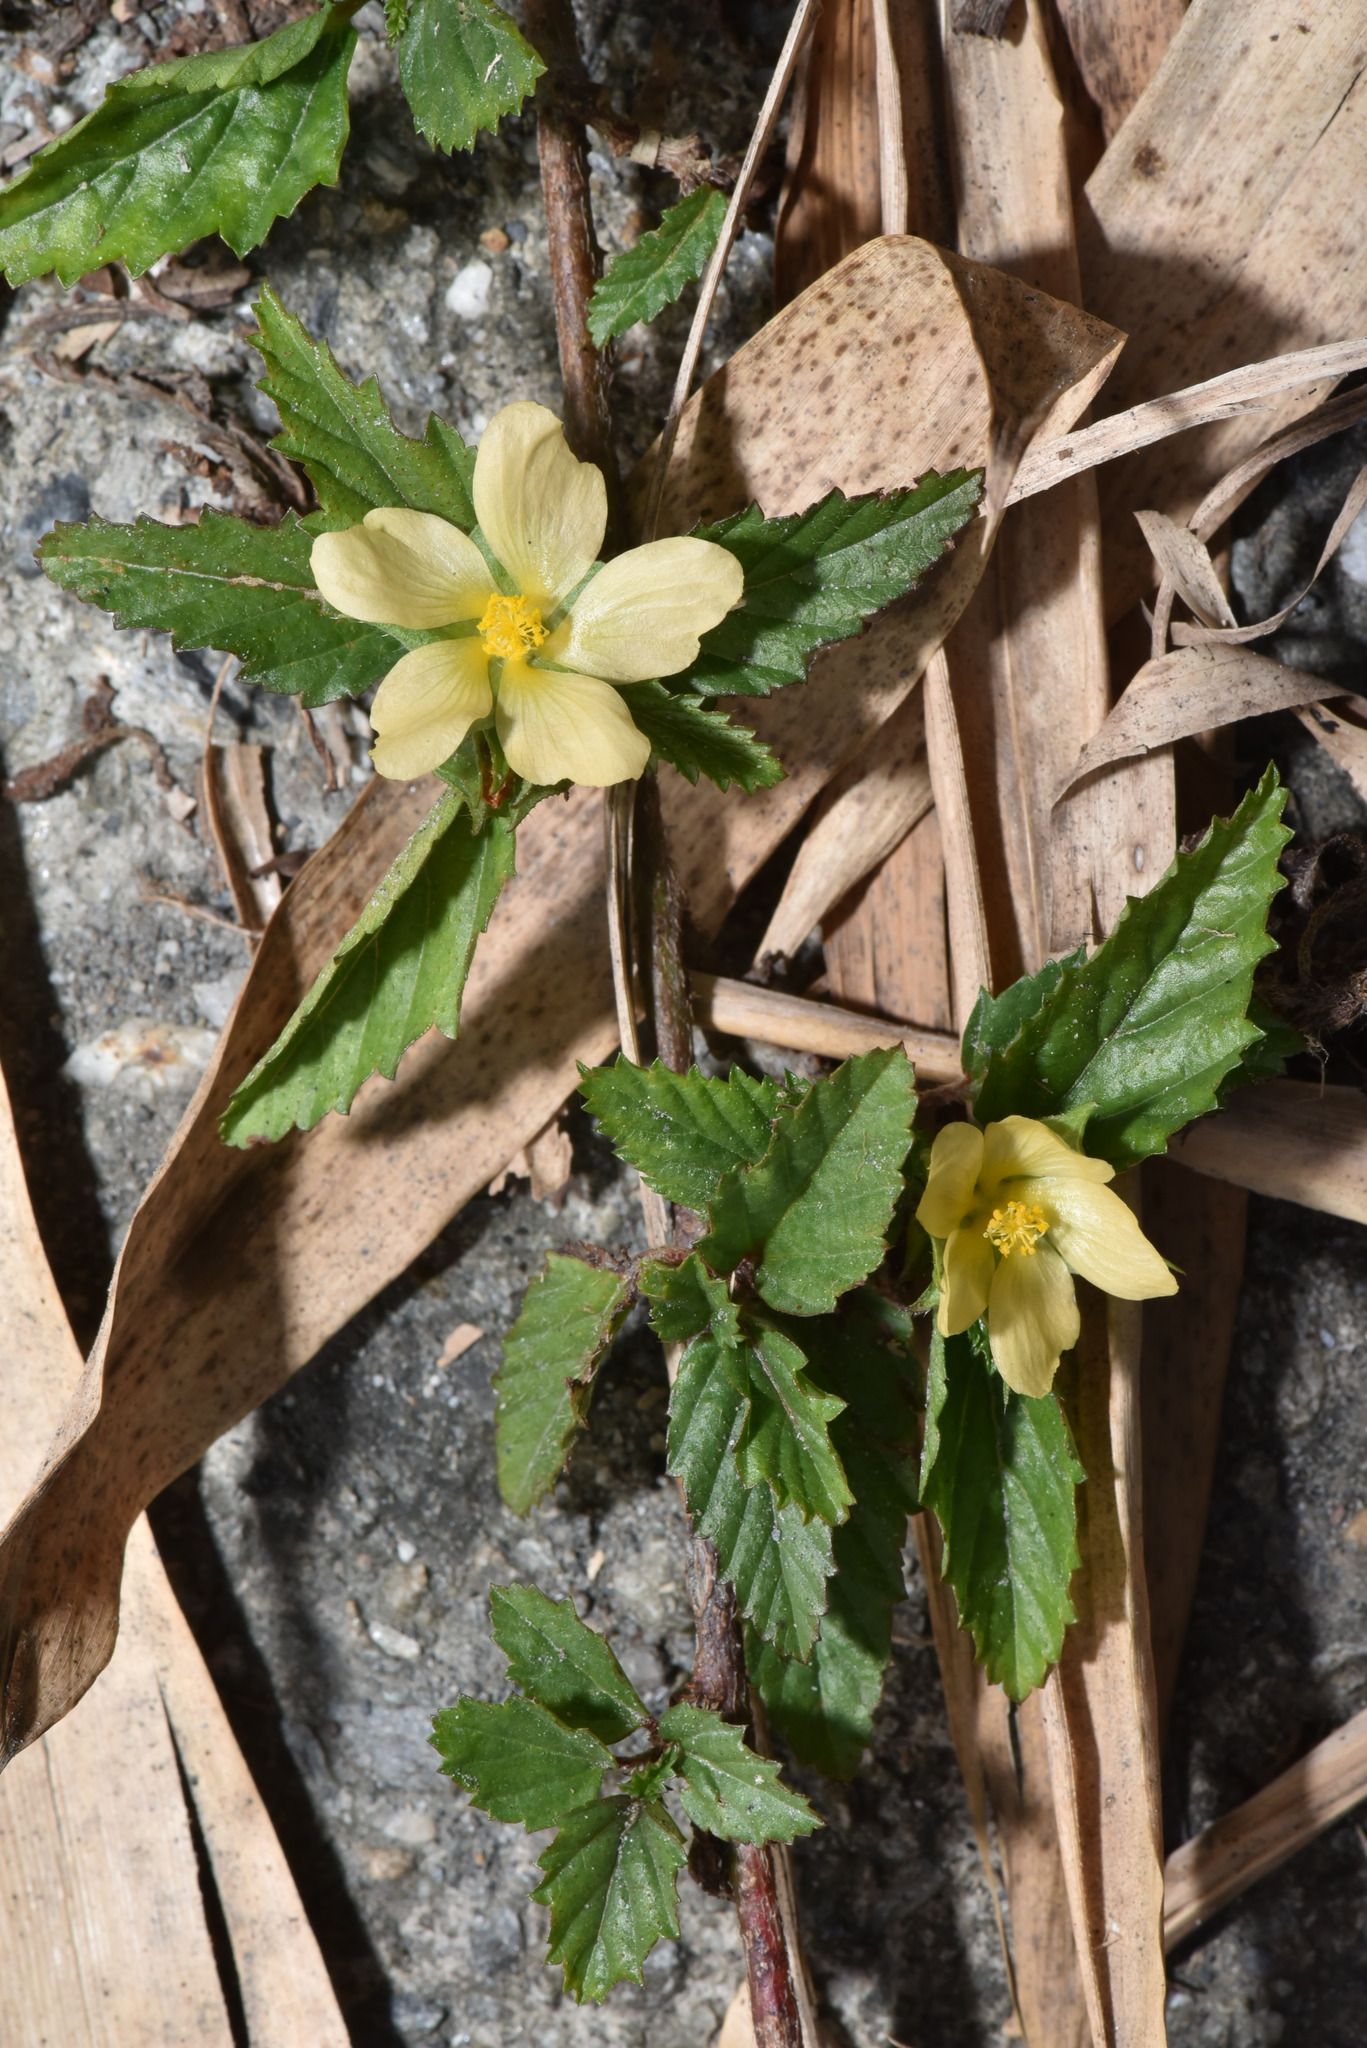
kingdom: Plantae
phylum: Tracheophyta
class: Magnoliopsida
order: Malvales
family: Malvaceae
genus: Malvastrum
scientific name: Malvastrum coromandelianum
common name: Threelobe false mallow
